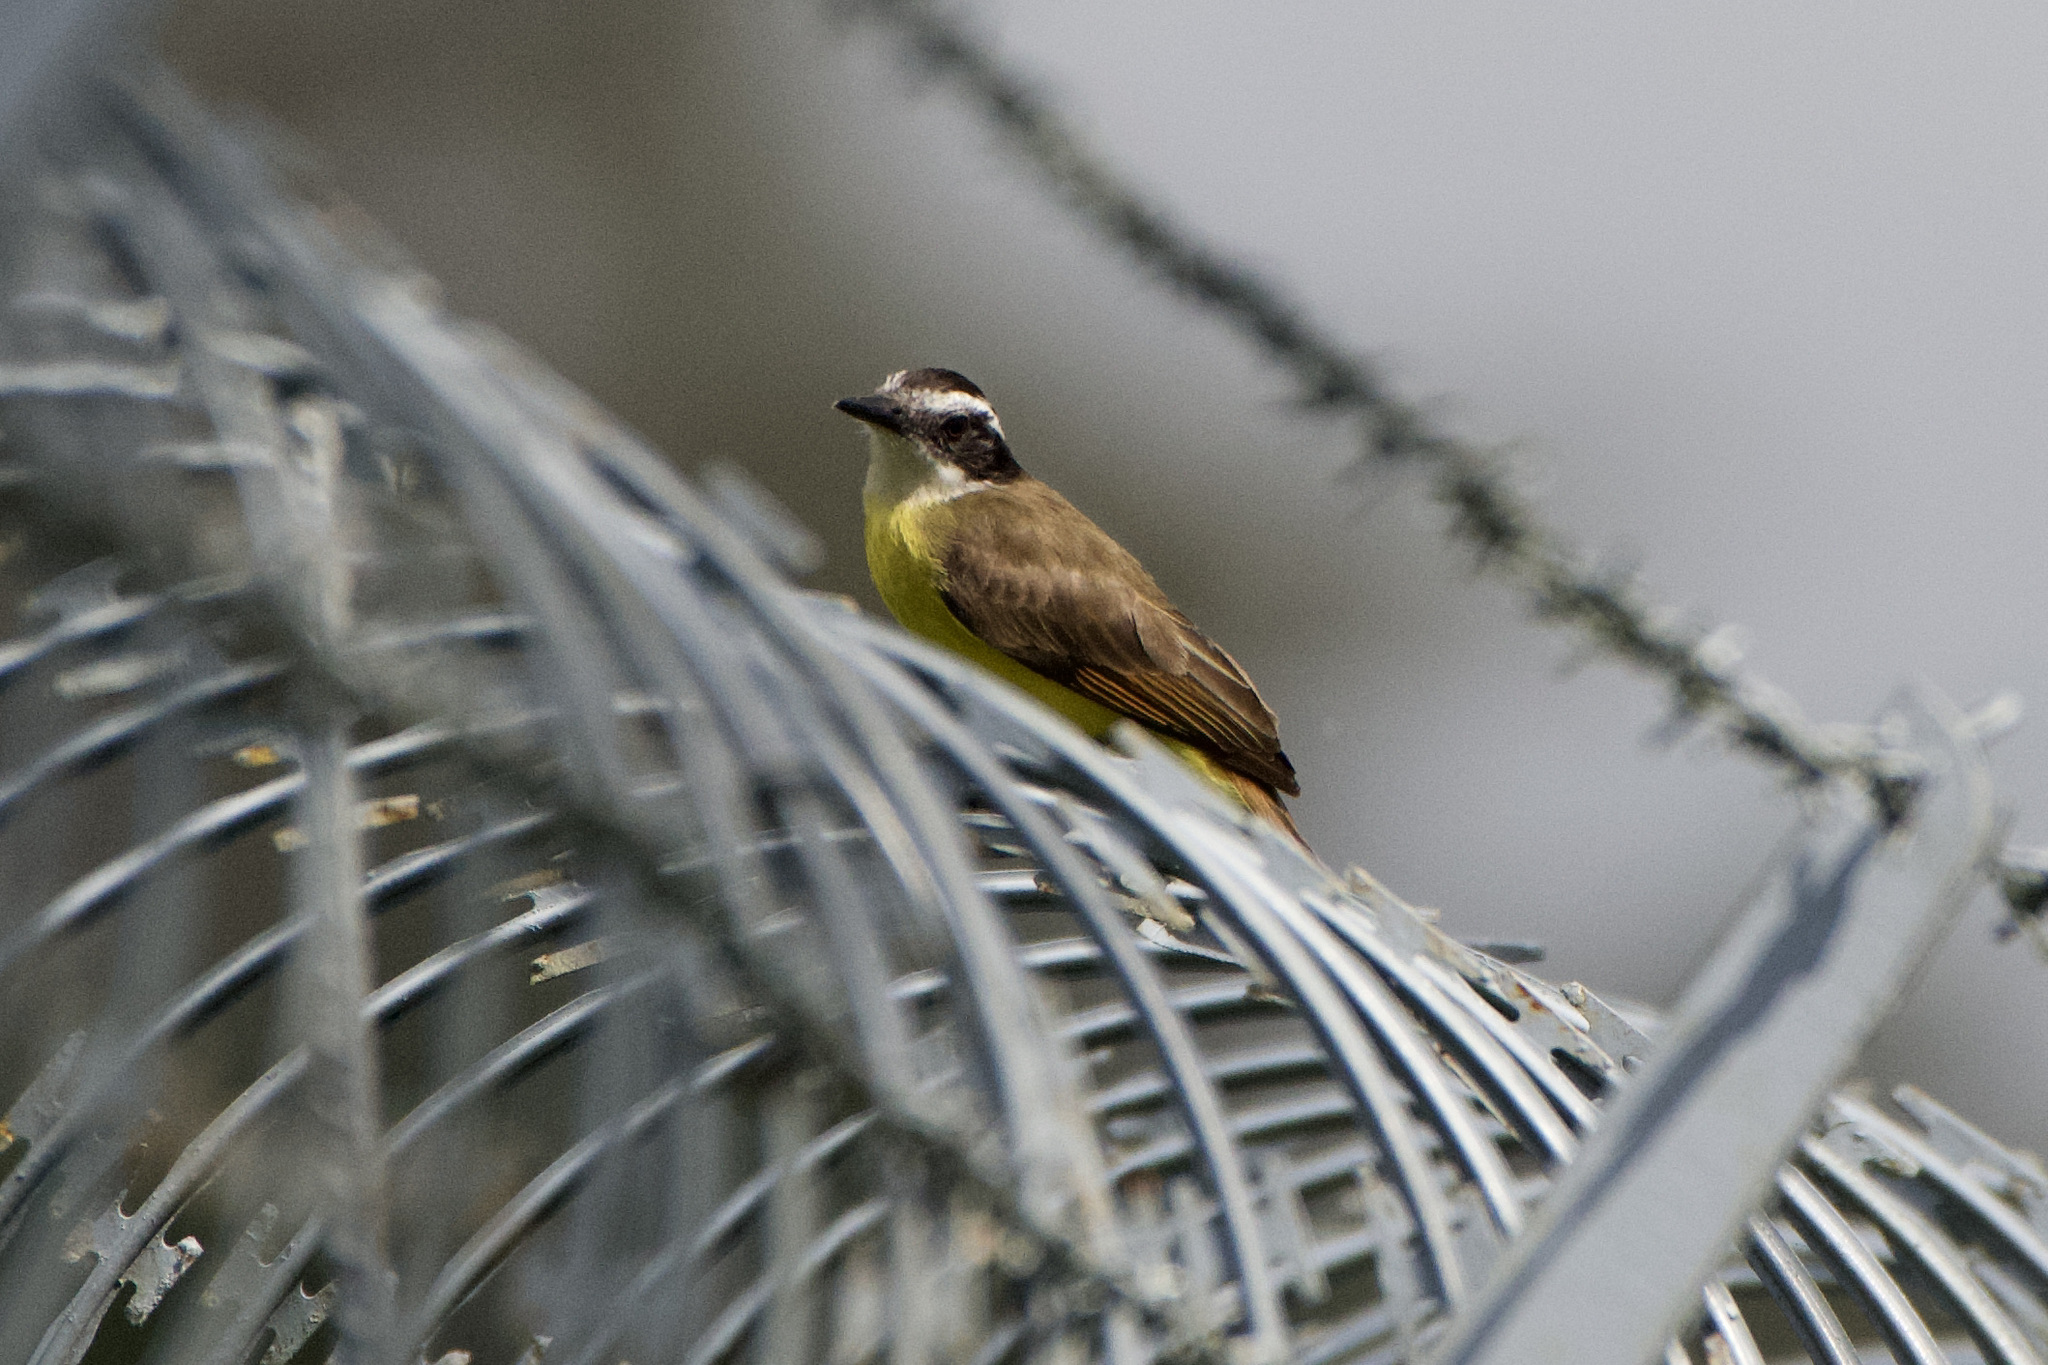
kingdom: Animalia
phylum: Chordata
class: Aves
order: Passeriformes
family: Tyrannidae
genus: Pitangus
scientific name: Pitangus lictor
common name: Lesser kiskadee
